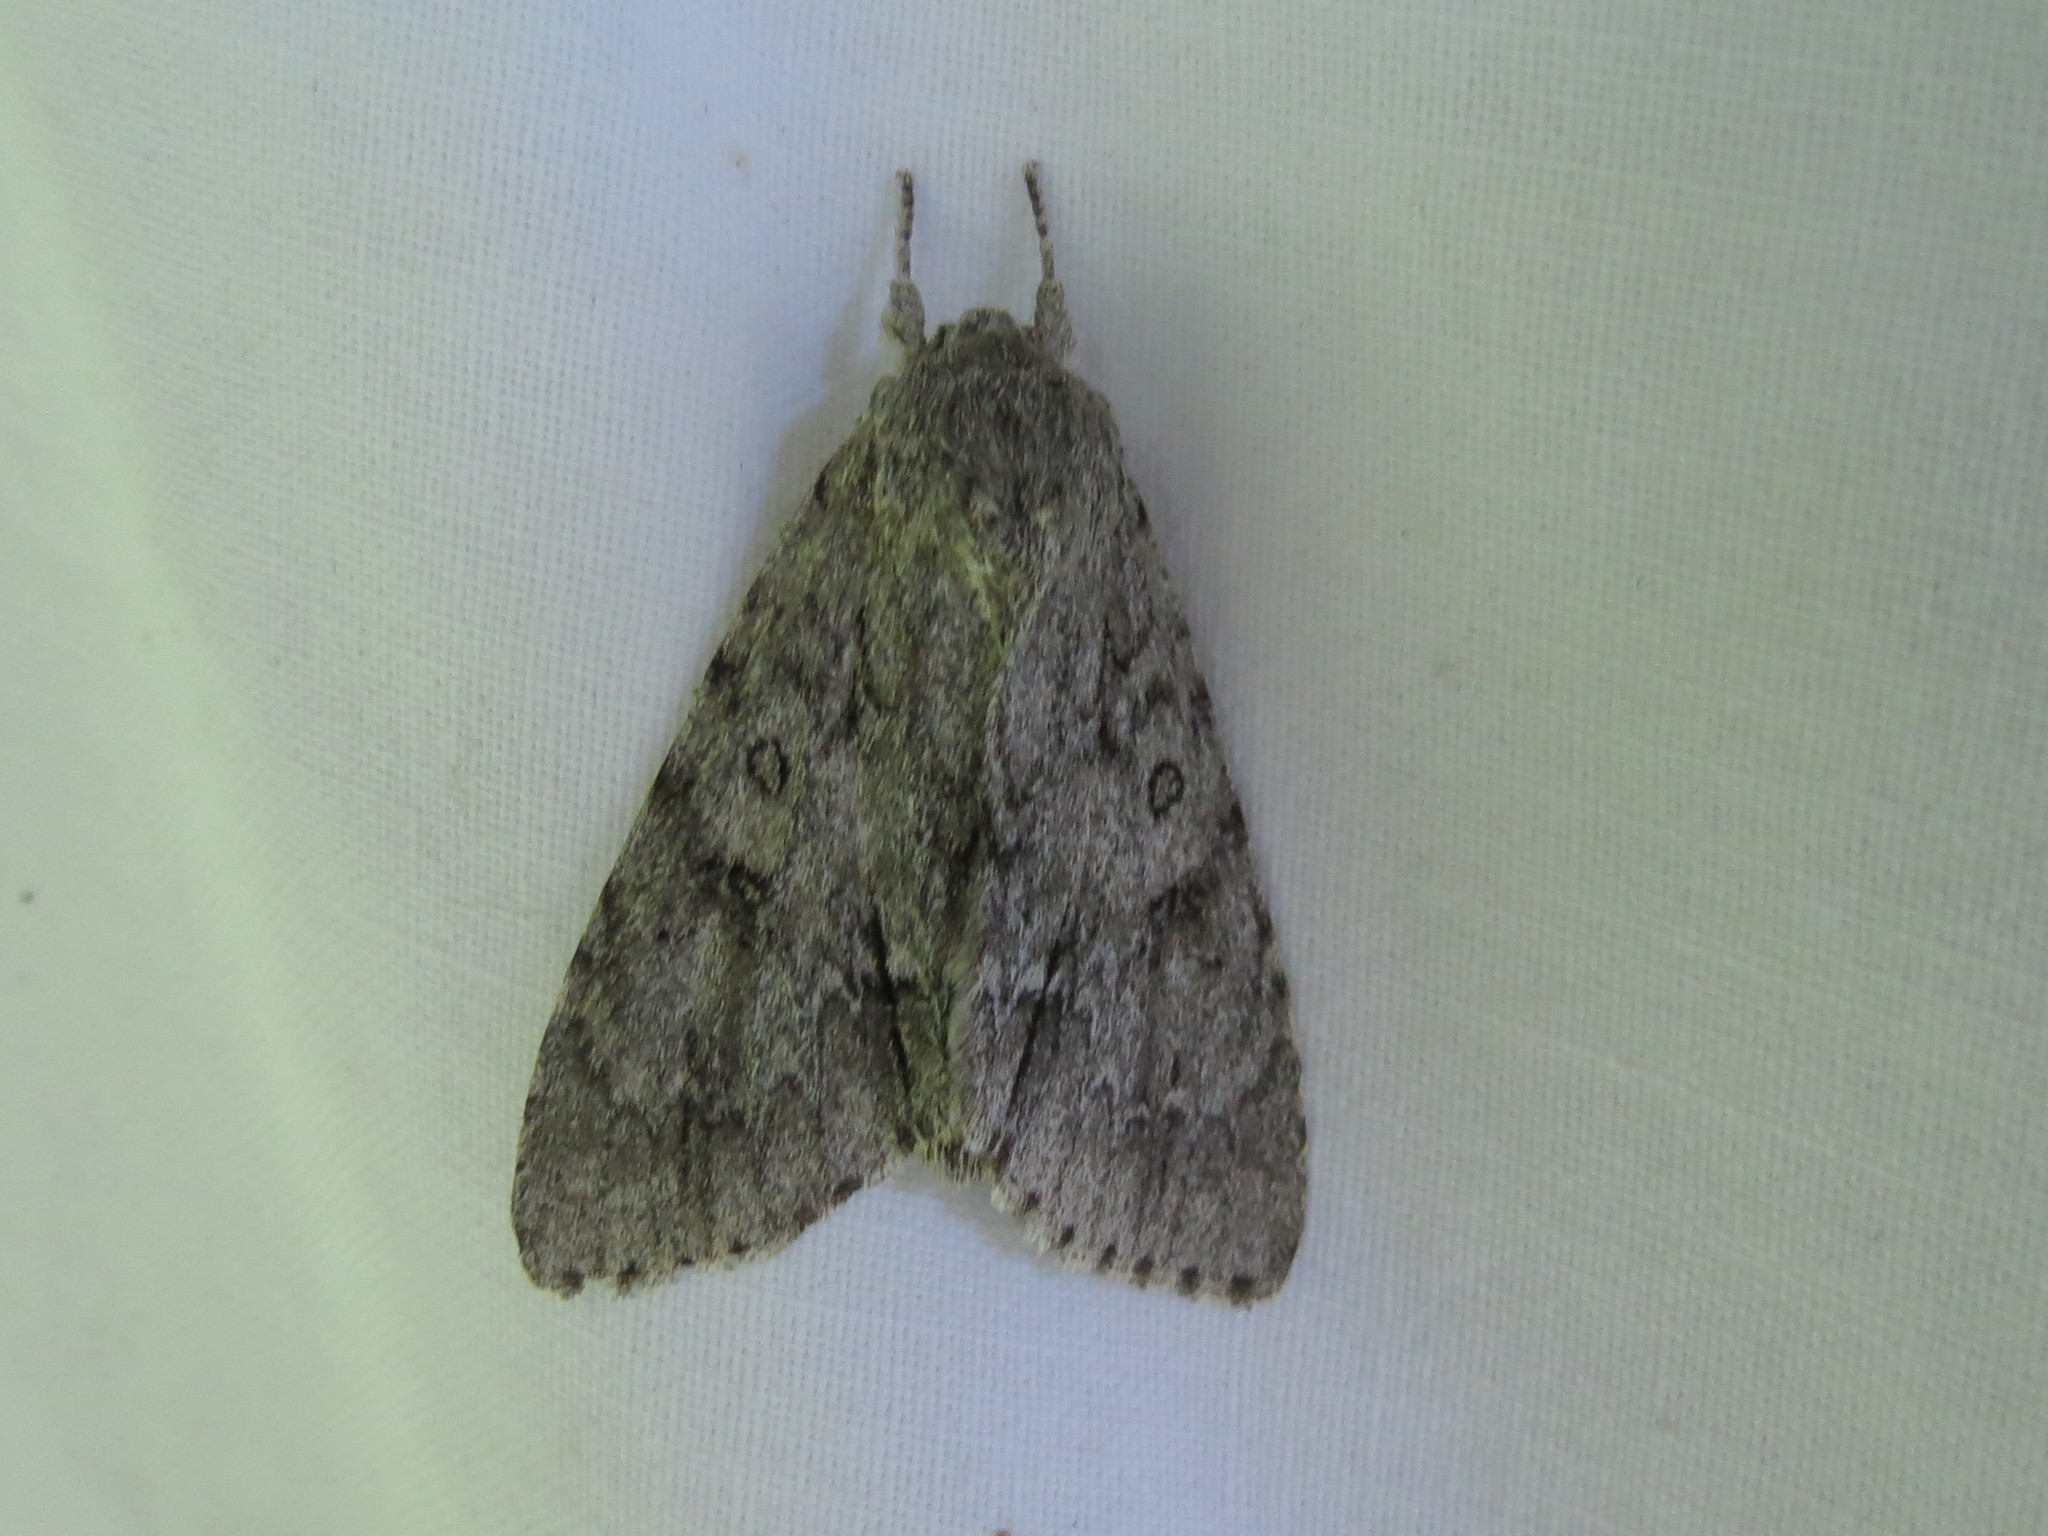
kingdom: Animalia
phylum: Arthropoda
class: Insecta
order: Lepidoptera
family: Noctuidae
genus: Acronicta
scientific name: Acronicta americana
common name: American dagger
